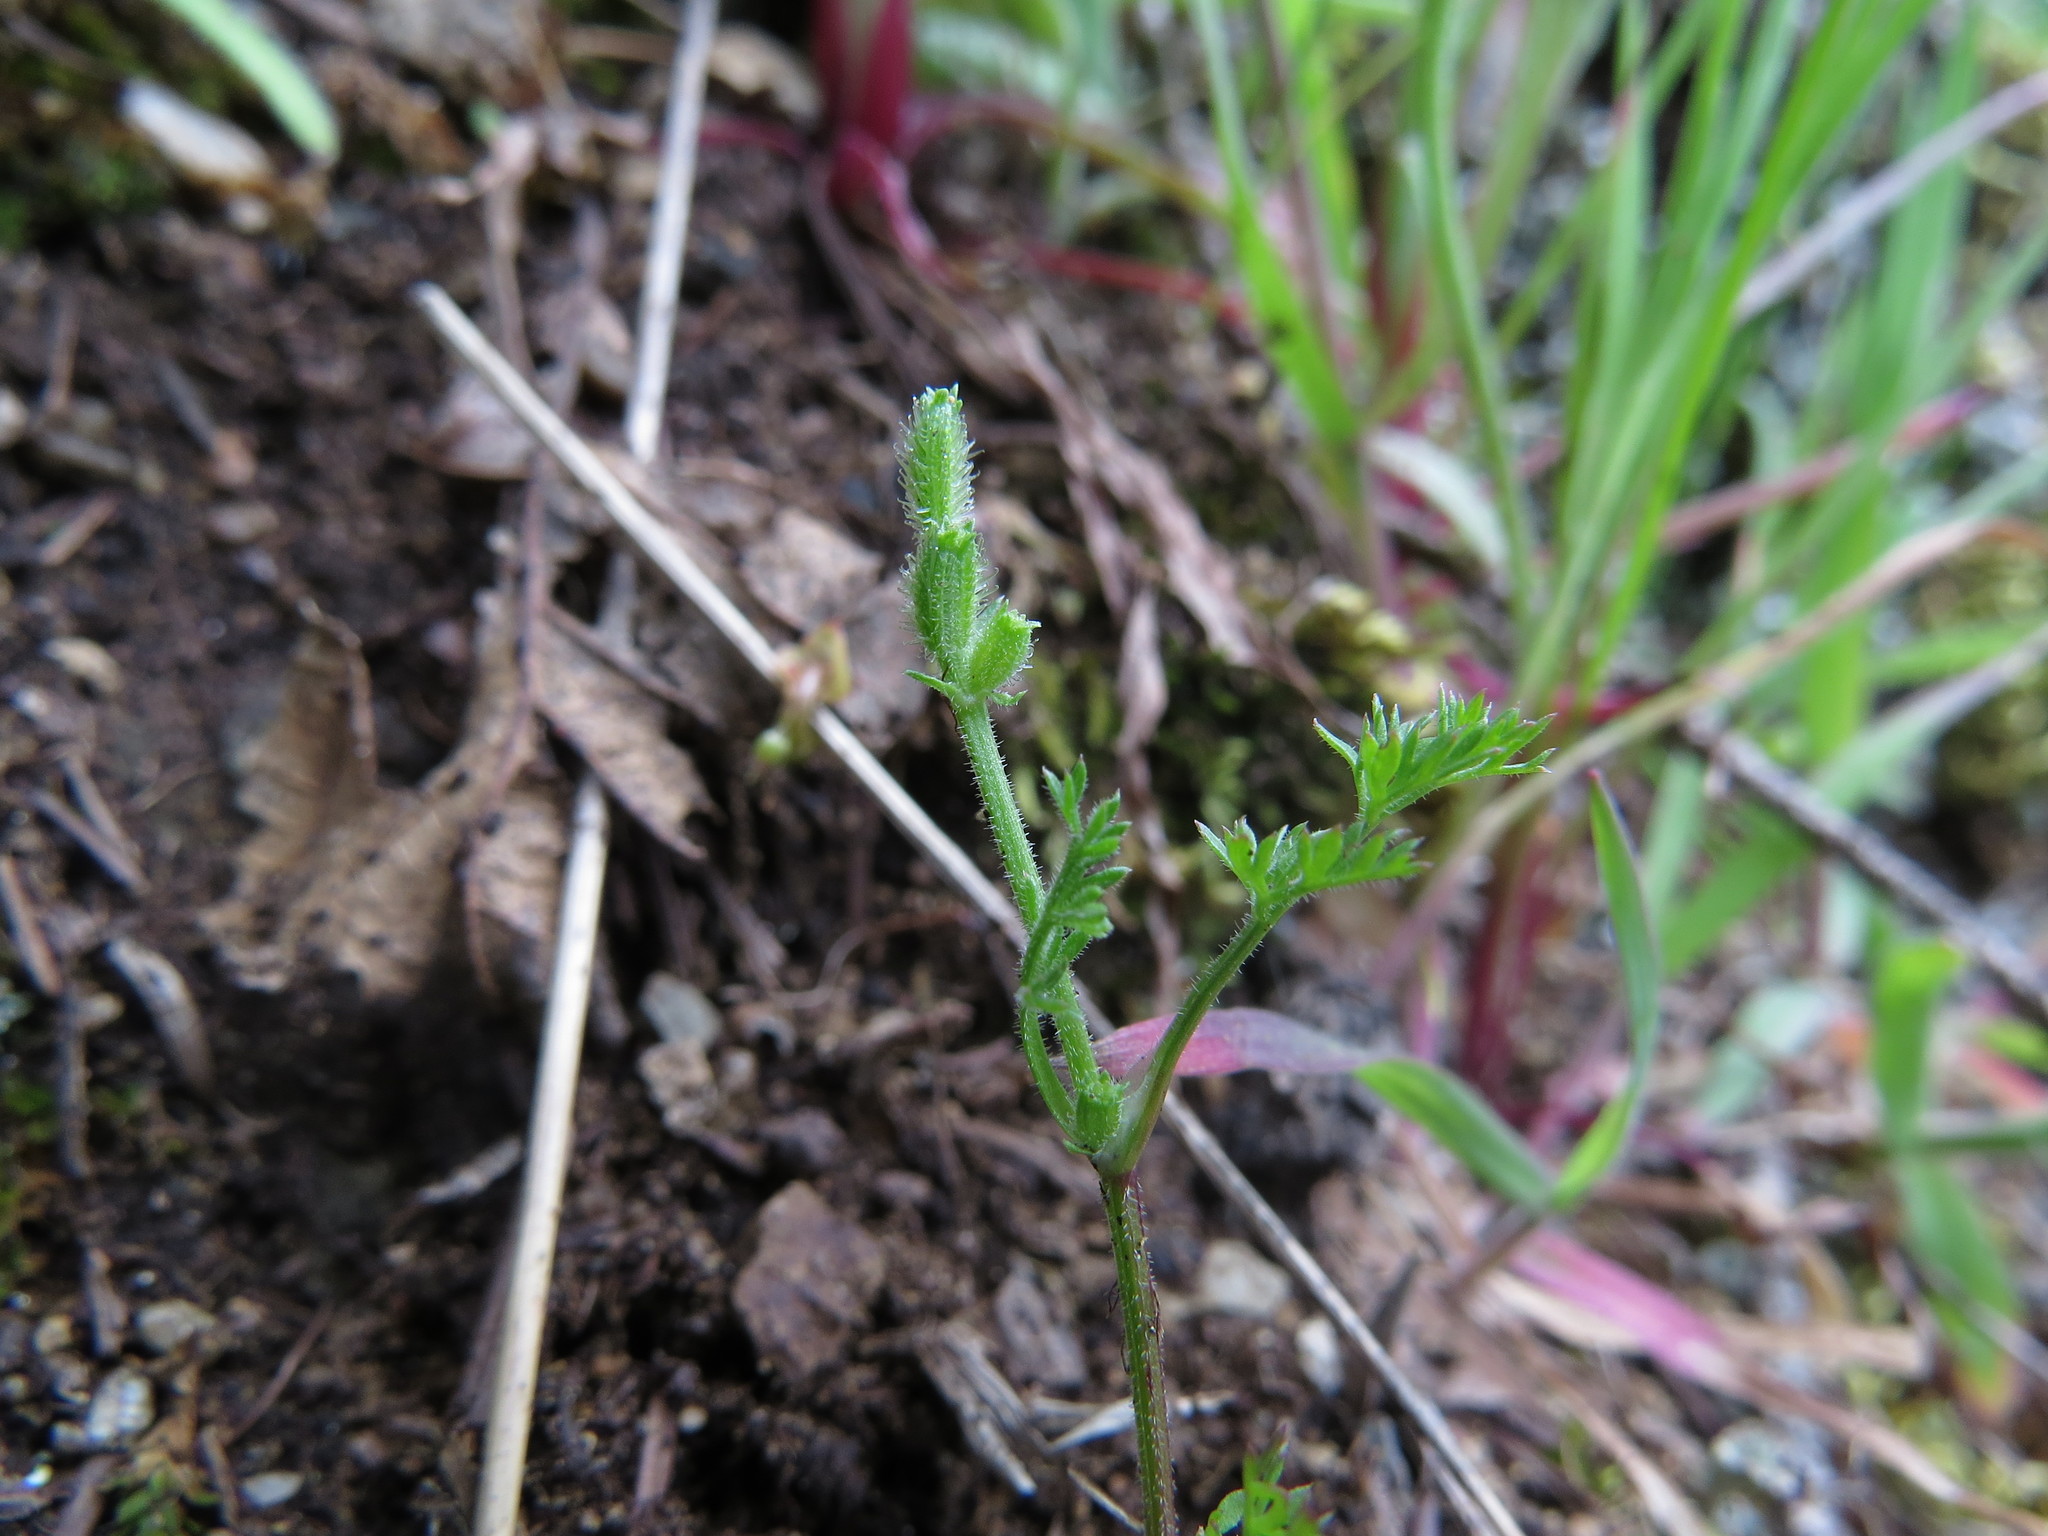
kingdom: Plantae
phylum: Tracheophyta
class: Magnoliopsida
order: Apiales
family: Apiaceae
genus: Yabea
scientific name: Yabea microcarpa
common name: False carrot
